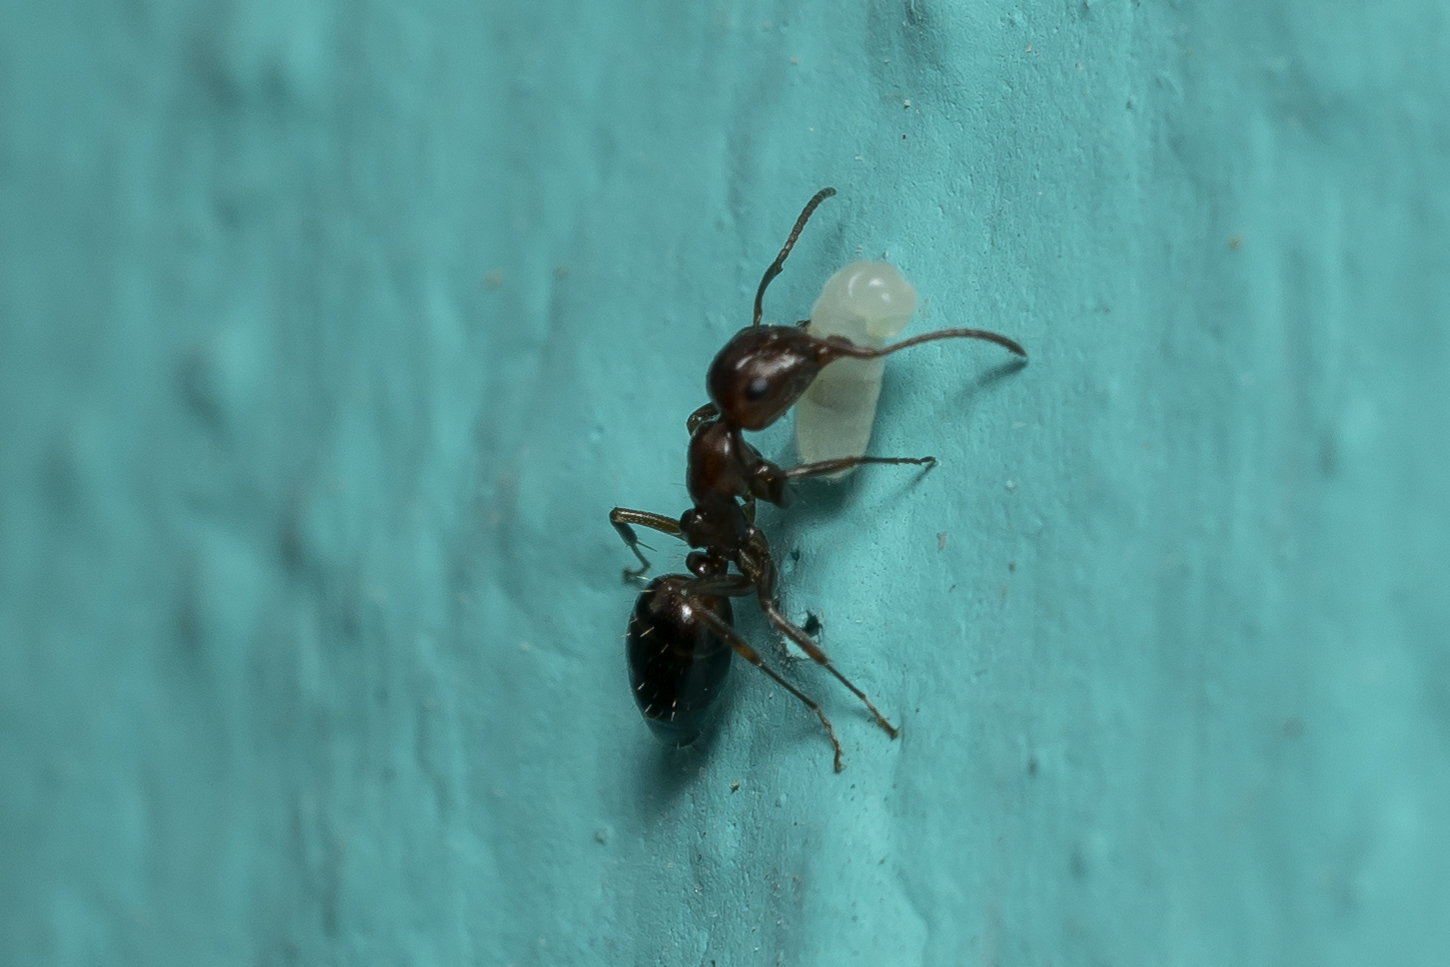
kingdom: Animalia
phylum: Arthropoda
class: Insecta
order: Hymenoptera
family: Formicidae
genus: Camponotus
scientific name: Camponotus lateralis
